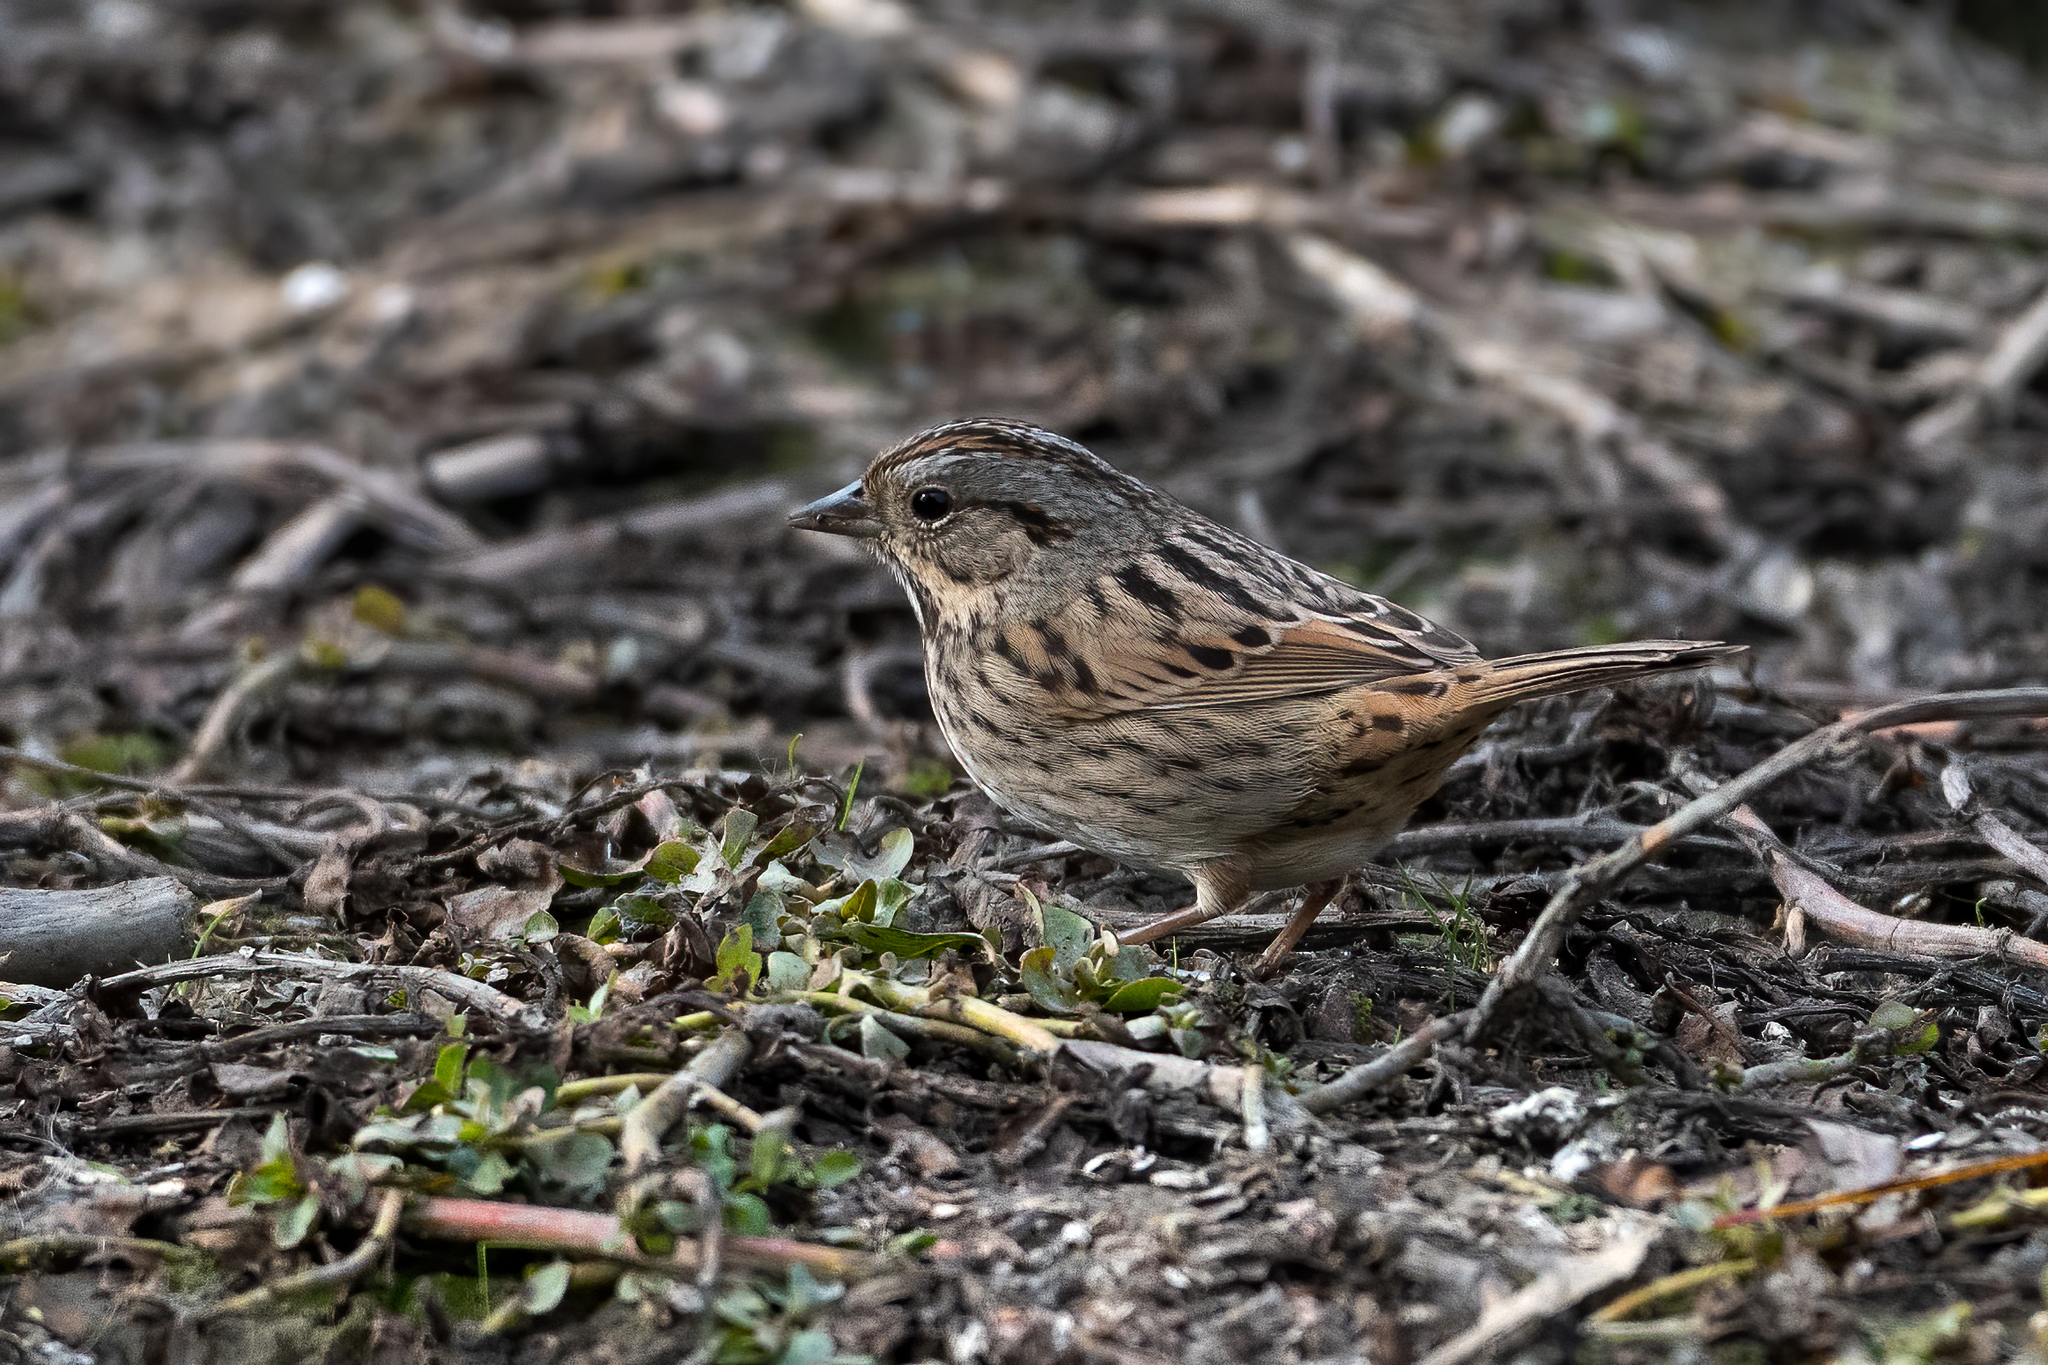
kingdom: Animalia
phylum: Chordata
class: Aves
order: Passeriformes
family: Passerellidae
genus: Melospiza
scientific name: Melospiza lincolnii
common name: Lincoln's sparrow
